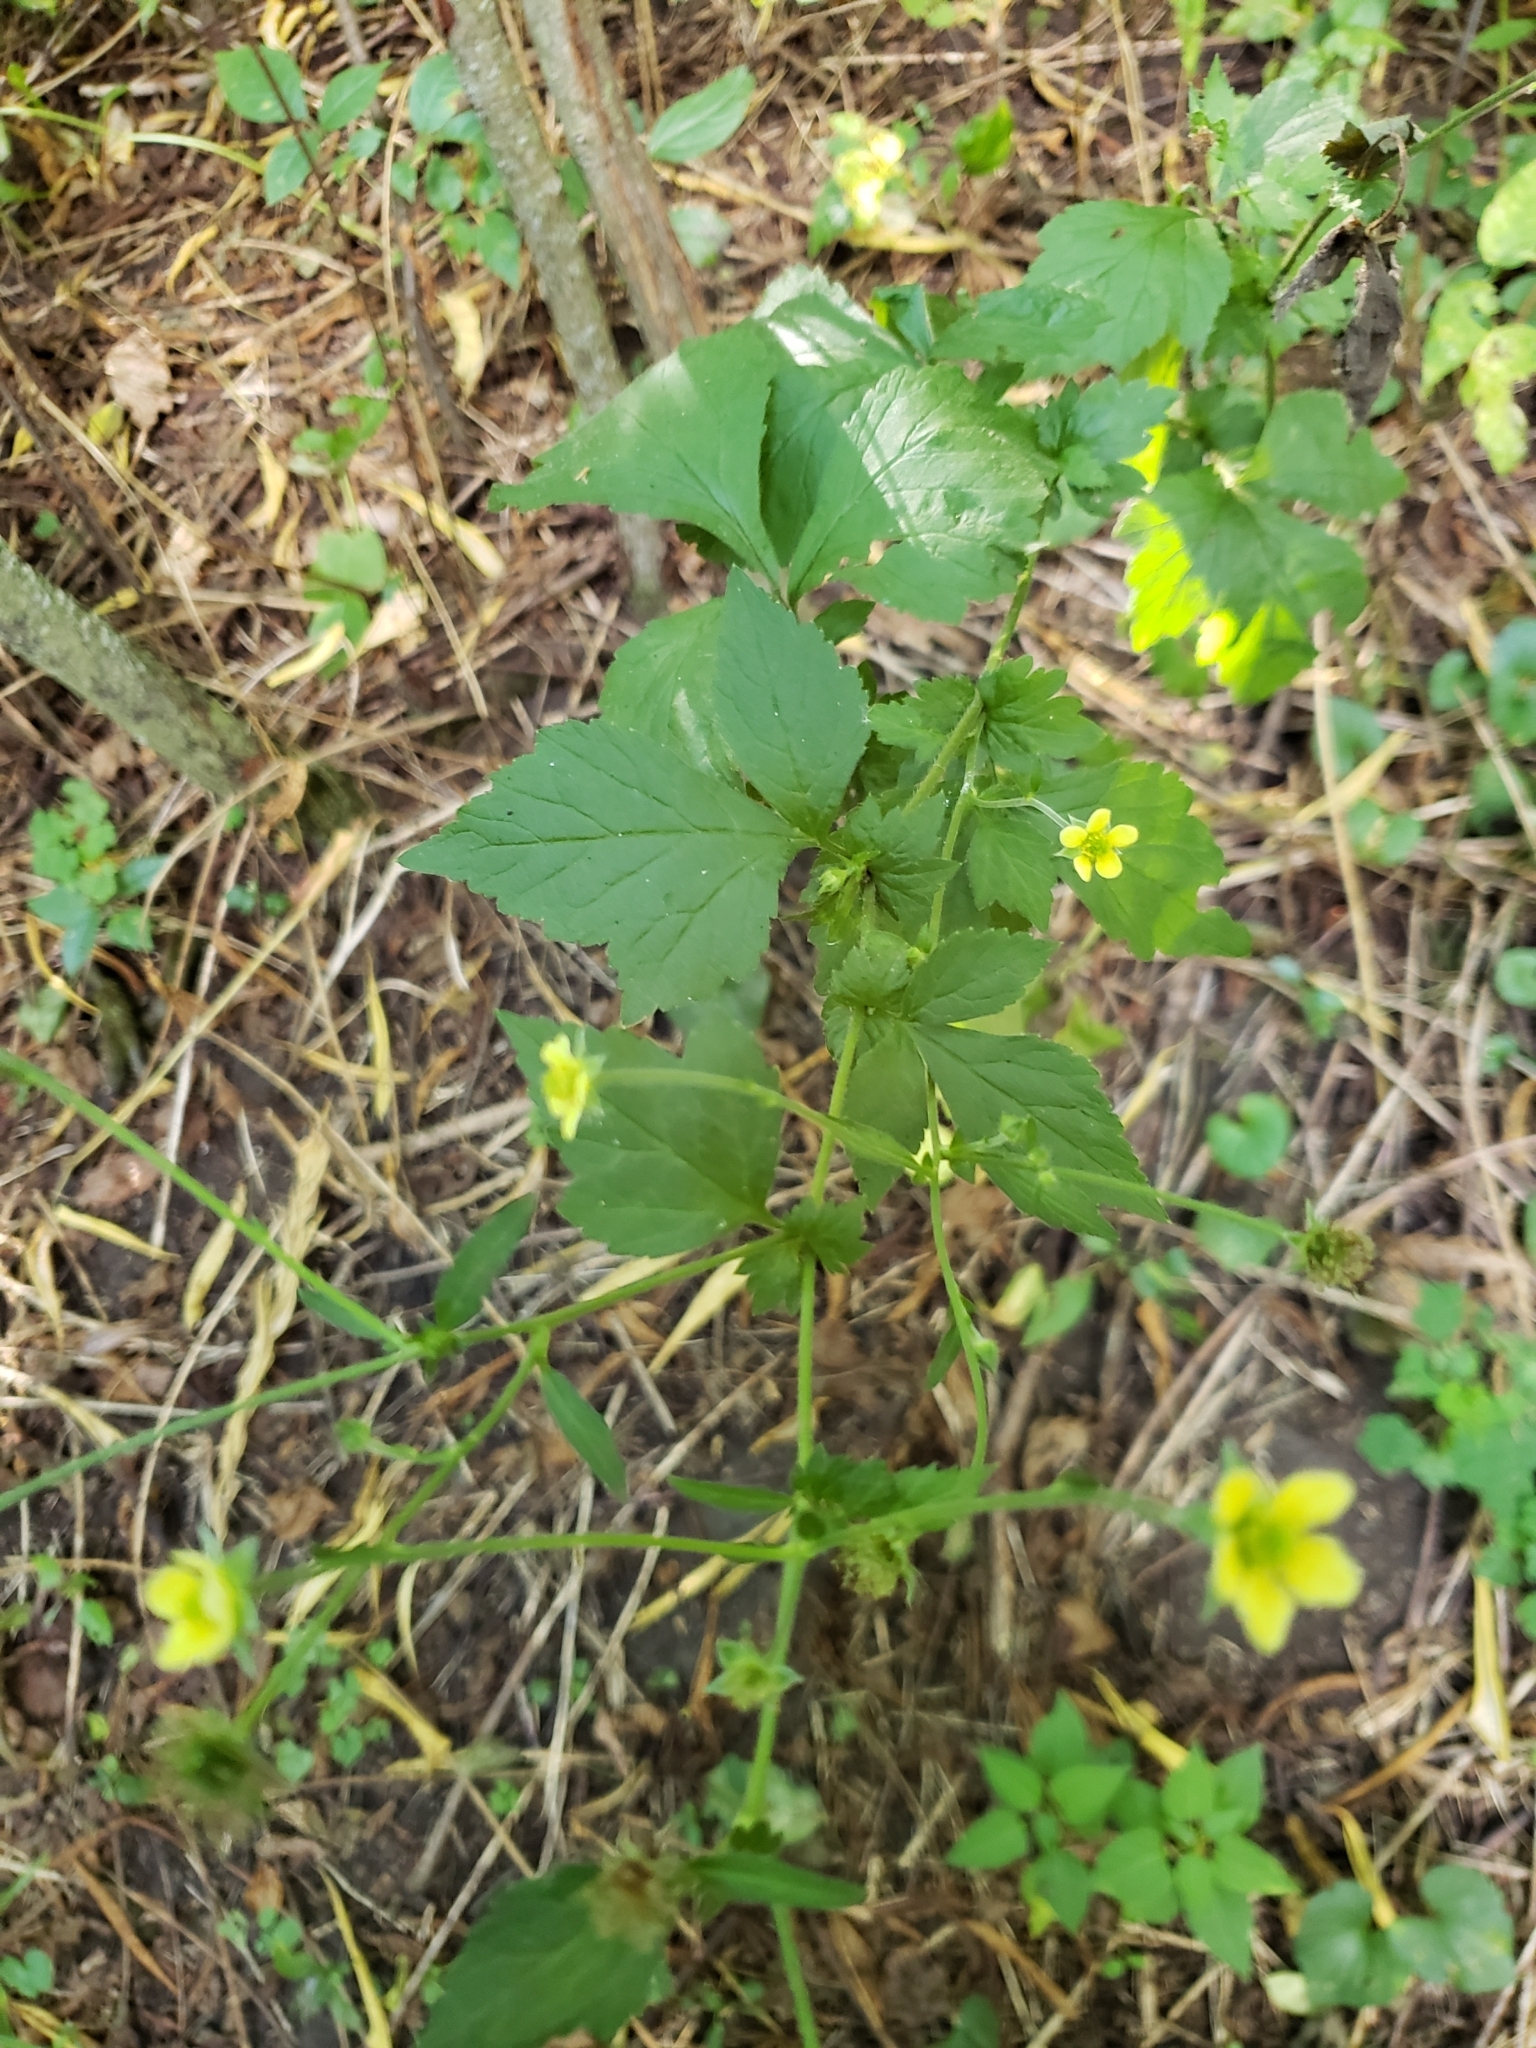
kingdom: Plantae
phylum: Tracheophyta
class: Magnoliopsida
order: Rosales
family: Rosaceae
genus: Geum
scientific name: Geum catlingii
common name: Catling's avens
